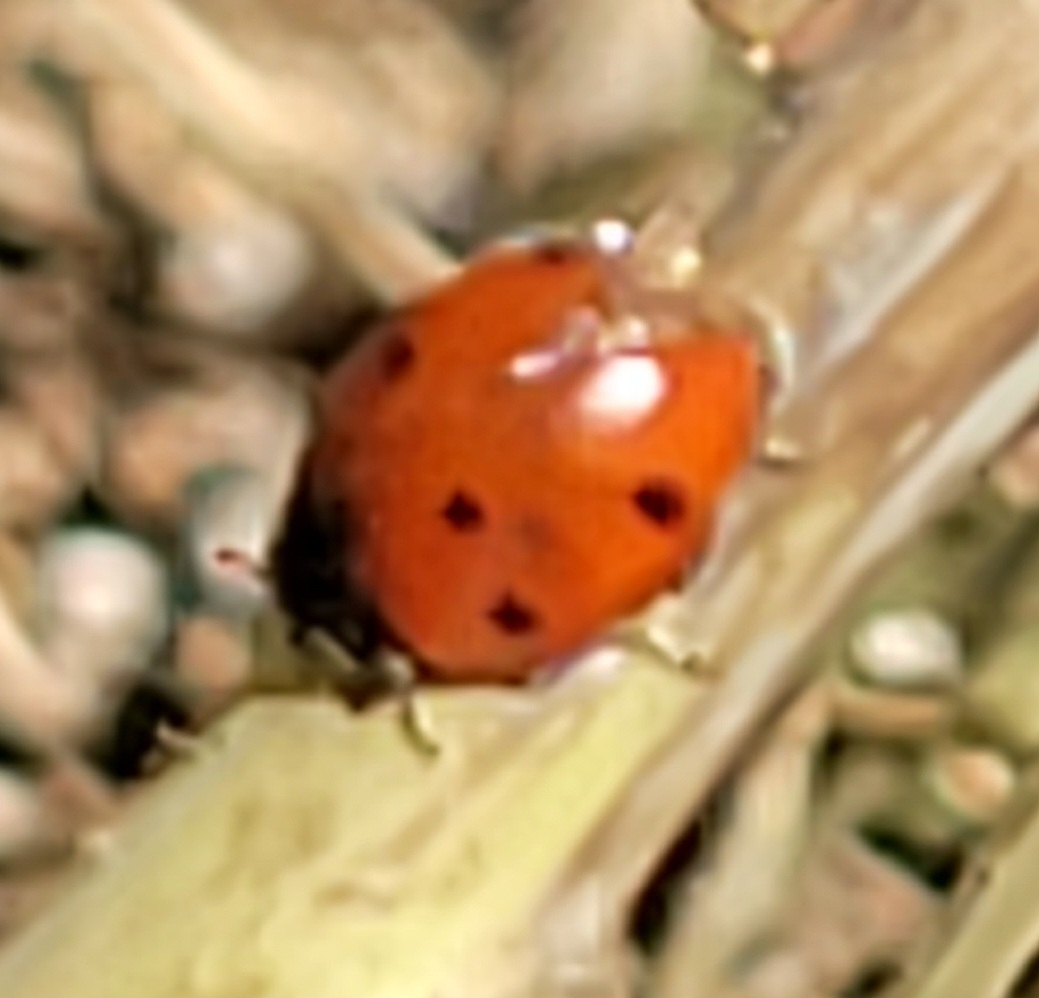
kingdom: Animalia
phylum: Arthropoda
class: Insecta
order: Coleoptera
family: Coccinellidae
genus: Coccinella
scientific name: Coccinella septempunctata
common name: Sevenspotted lady beetle
